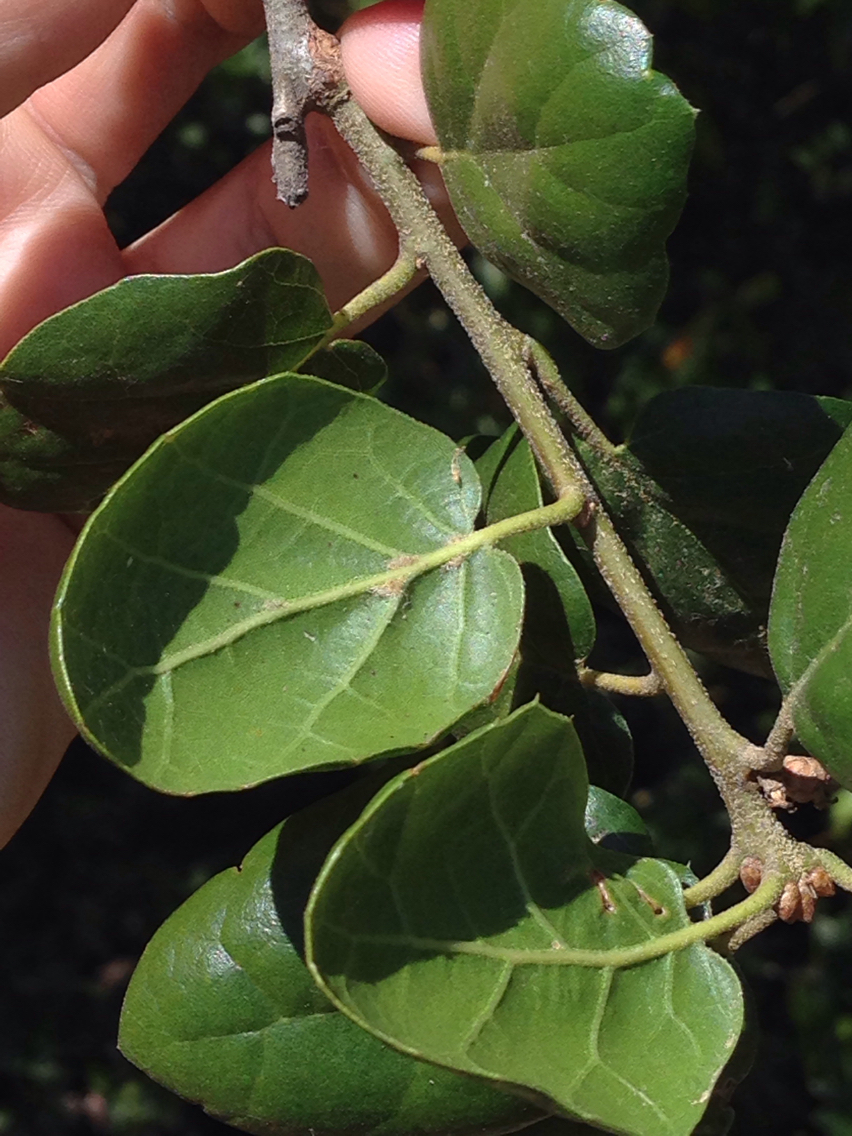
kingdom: Plantae
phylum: Tracheophyta
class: Magnoliopsida
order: Fagales
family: Fagaceae
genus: Quercus
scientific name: Quercus agrifolia
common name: California live oak
